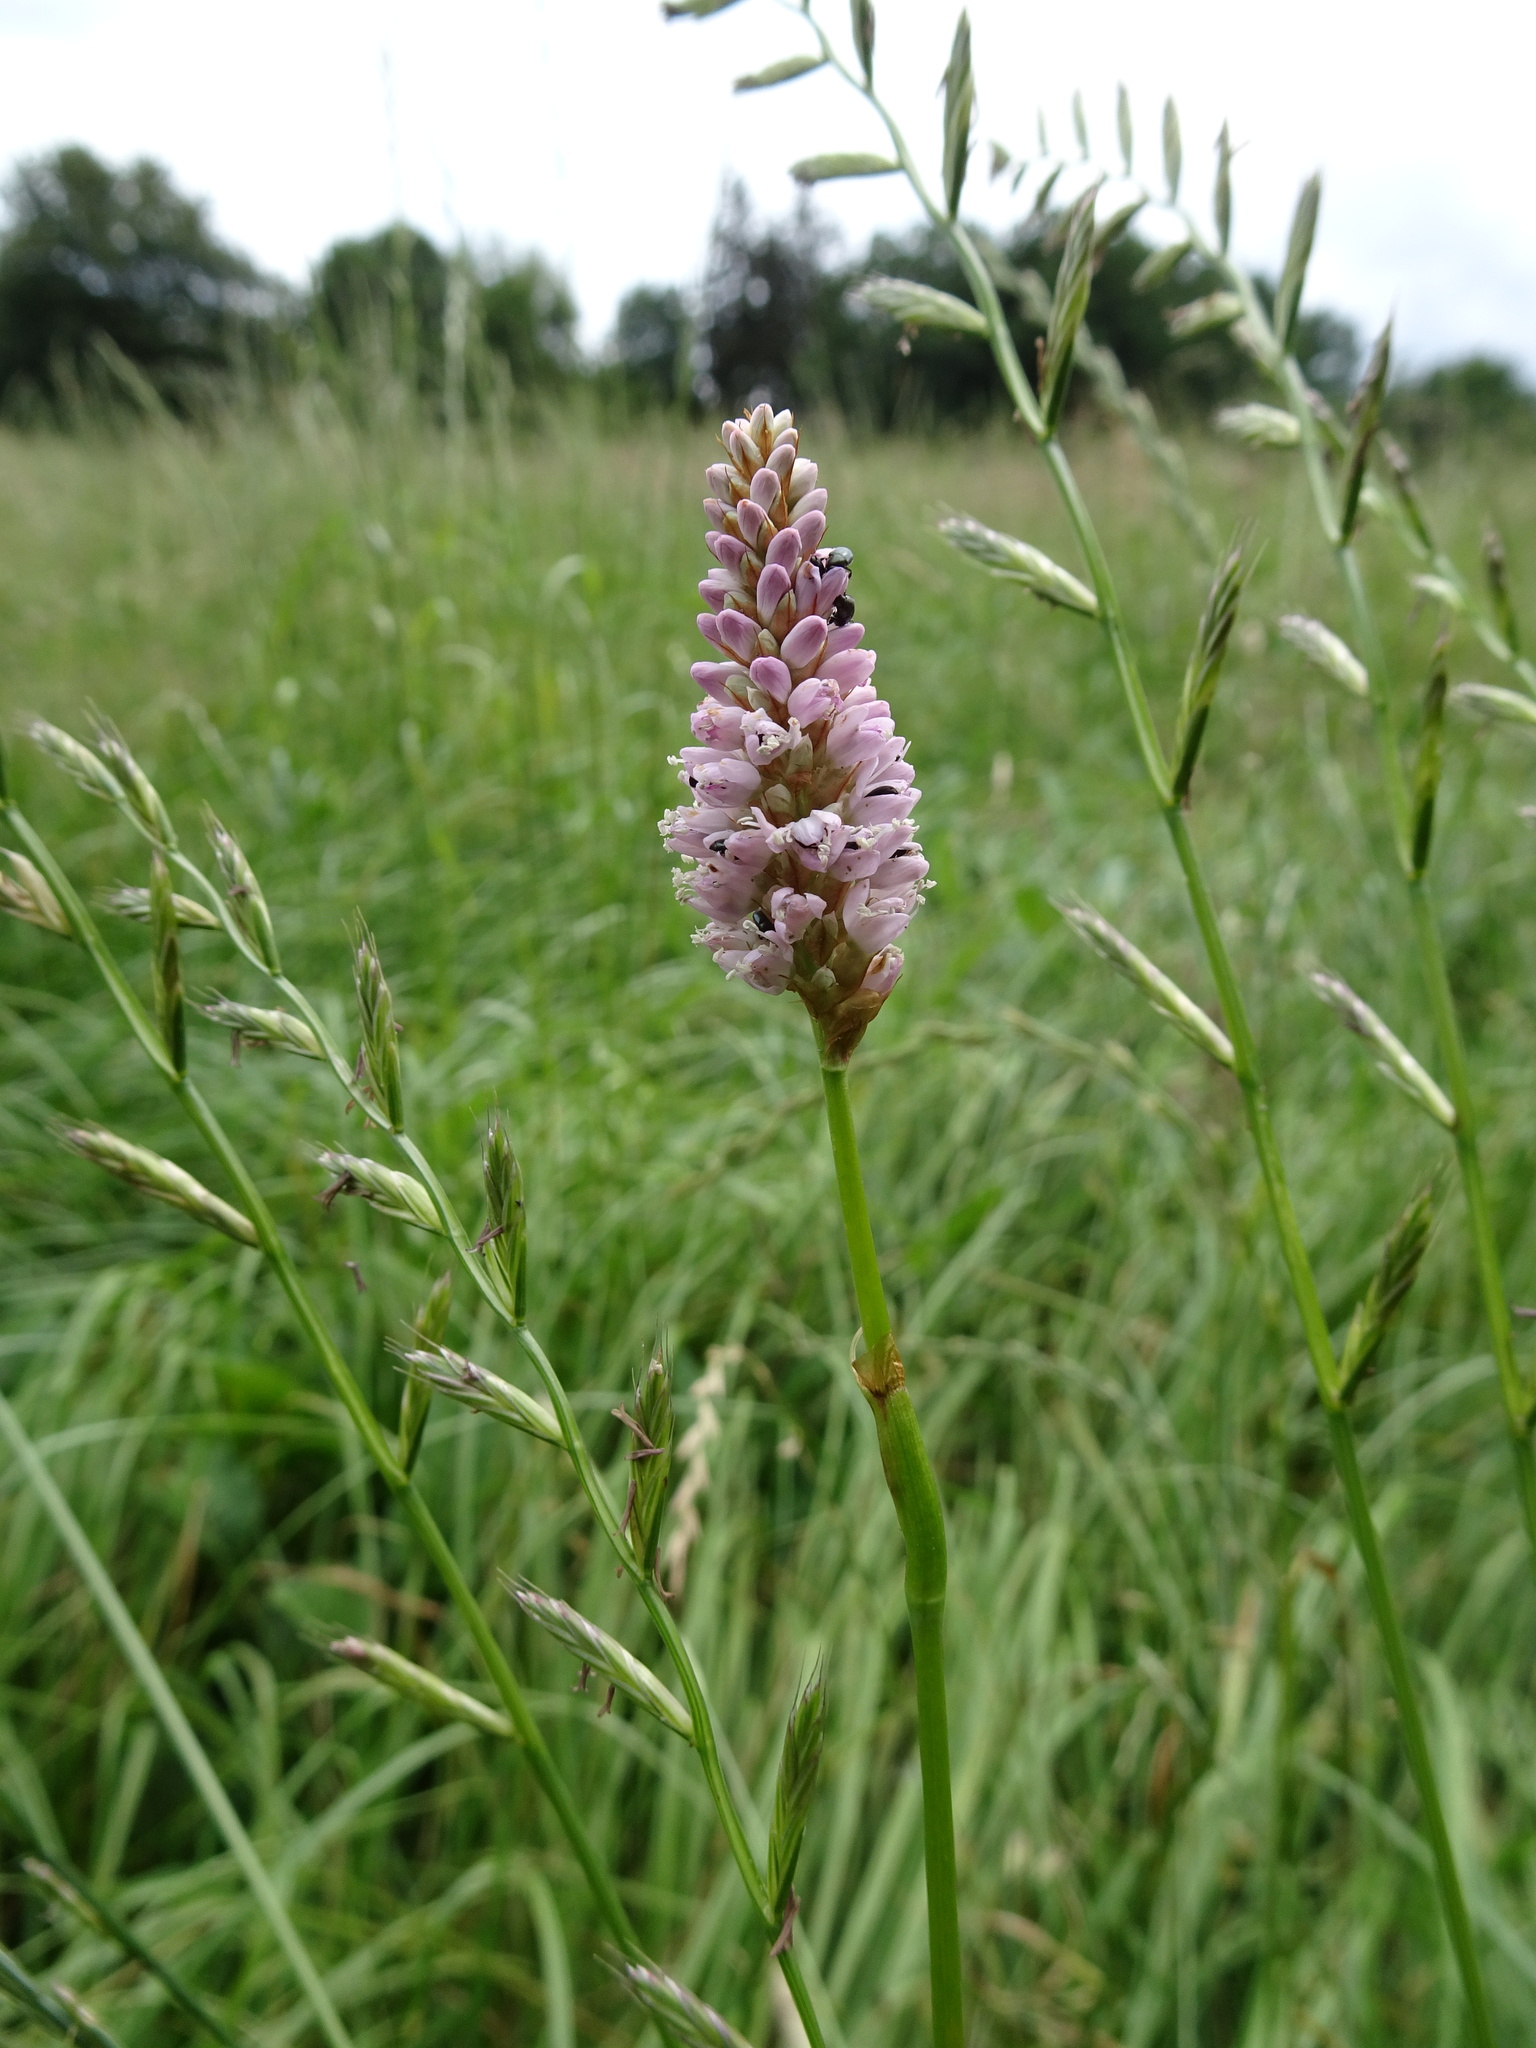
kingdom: Plantae
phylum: Tracheophyta
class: Magnoliopsida
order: Caryophyllales
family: Polygonaceae
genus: Bistorta
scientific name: Bistorta officinalis
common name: Common bistort
